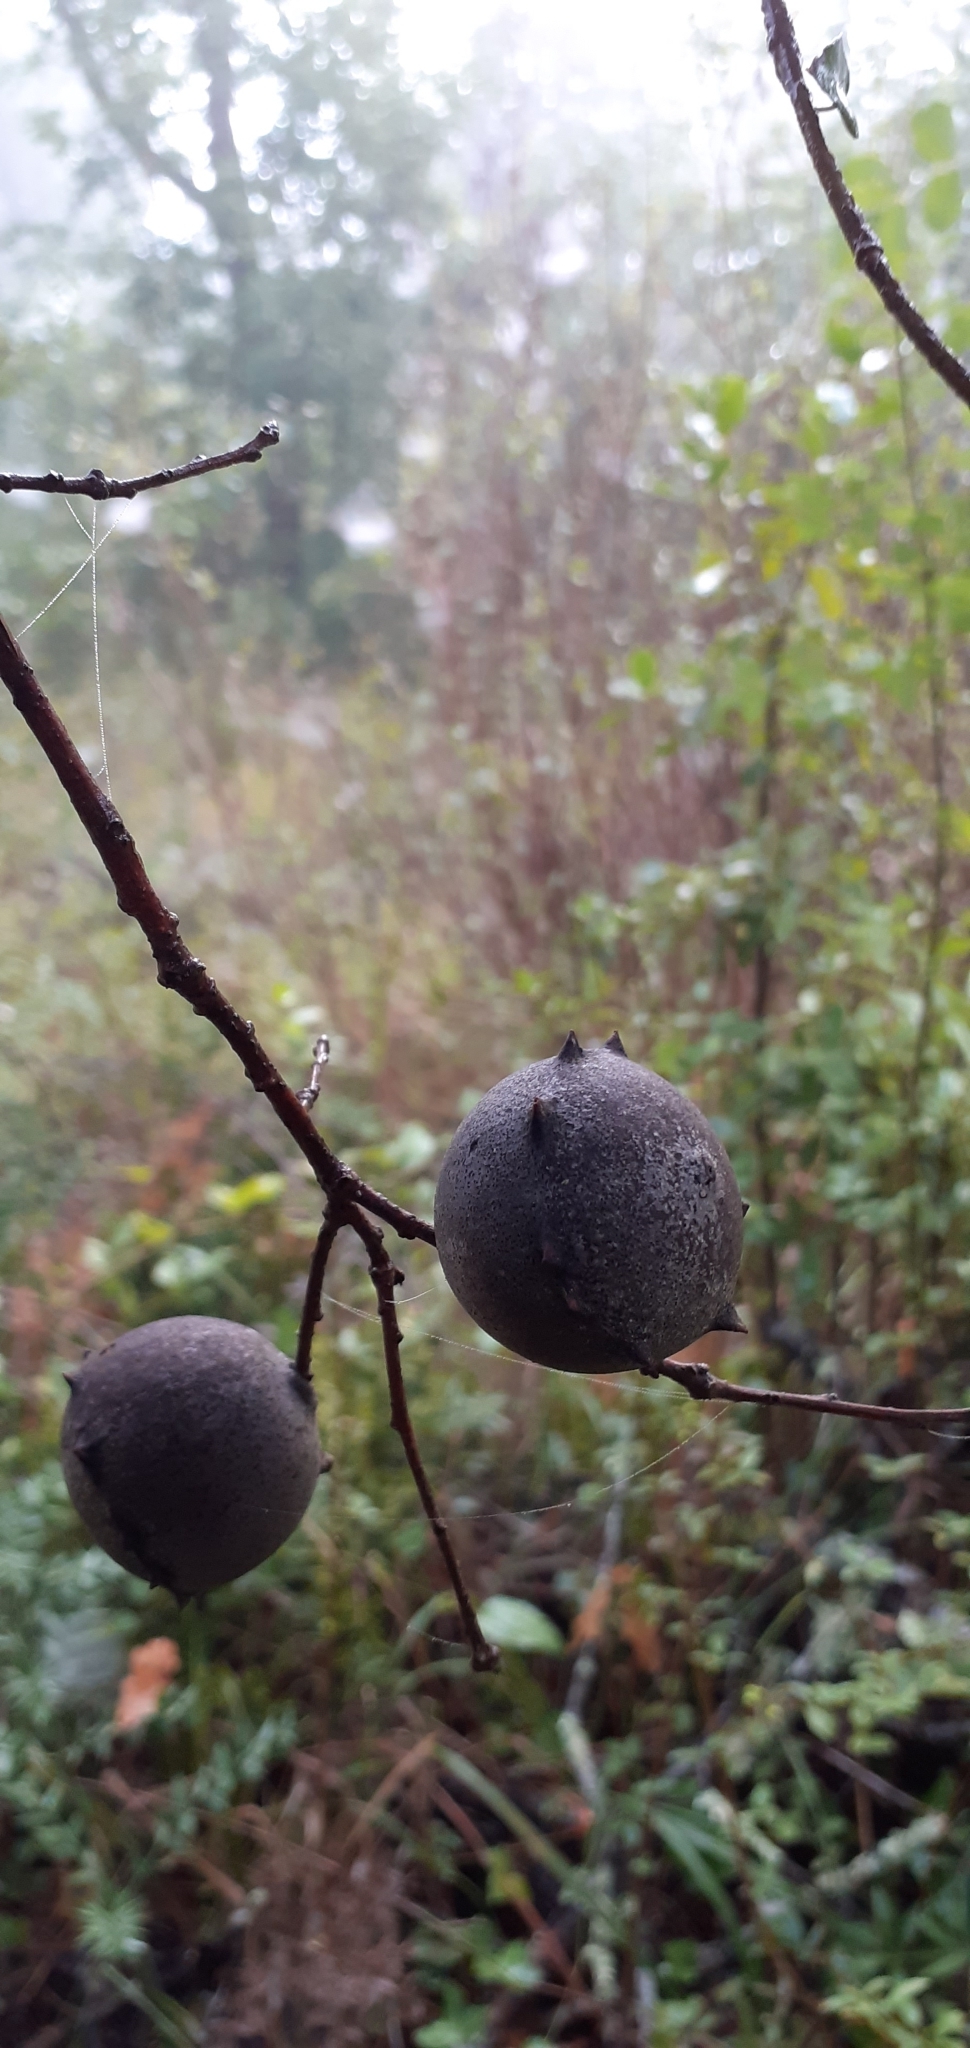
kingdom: Animalia
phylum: Arthropoda
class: Insecta
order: Hymenoptera
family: Cynipidae
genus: Andricus
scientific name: Andricus quercustozae
